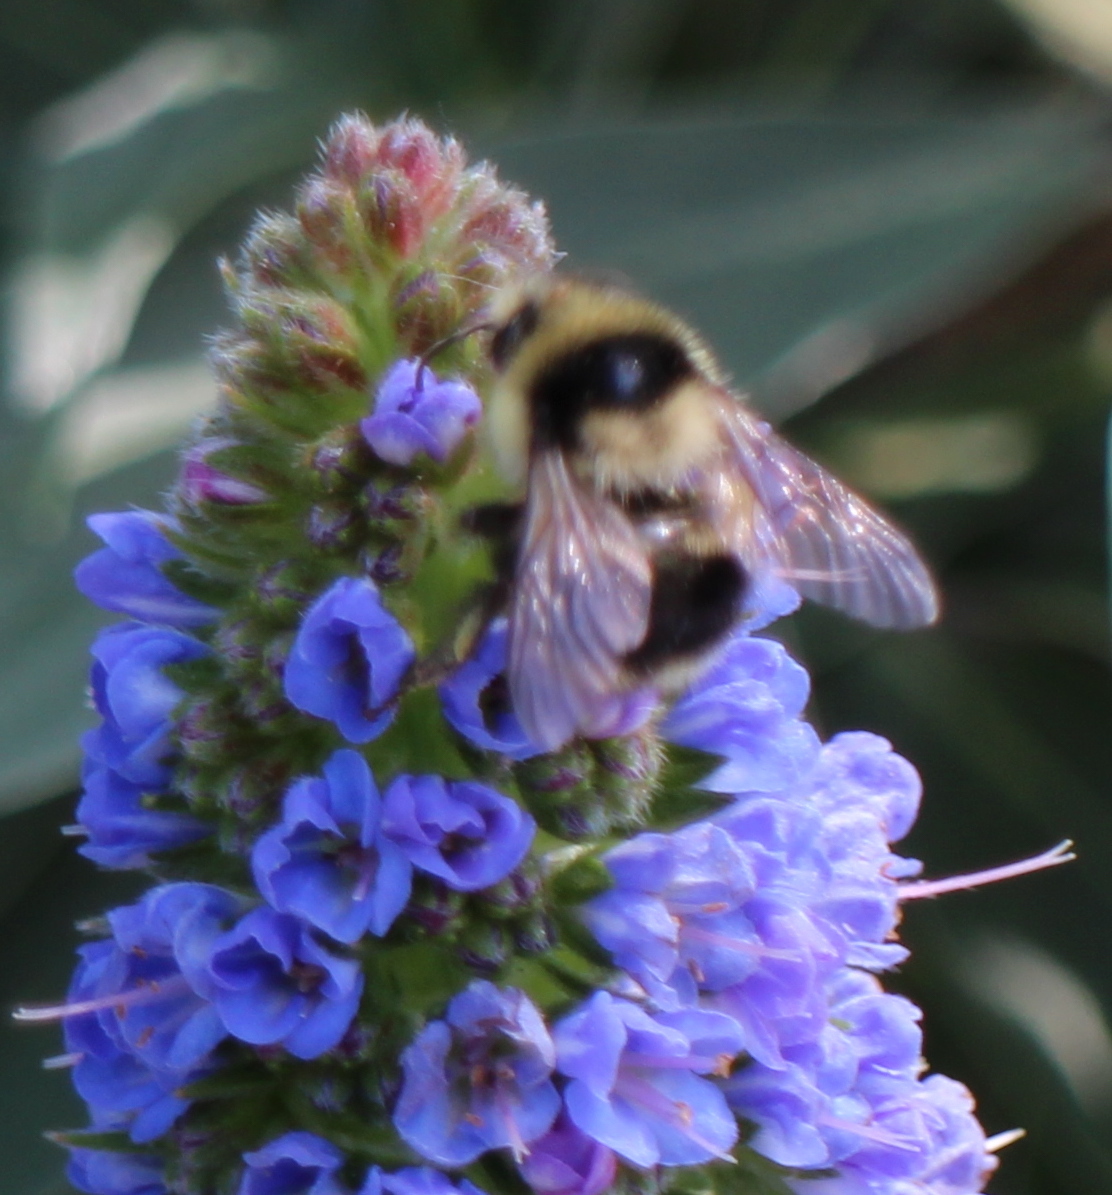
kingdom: Animalia
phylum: Arthropoda
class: Insecta
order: Hymenoptera
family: Apidae
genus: Bombus
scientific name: Bombus melanopygus
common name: Black tail bumble bee
